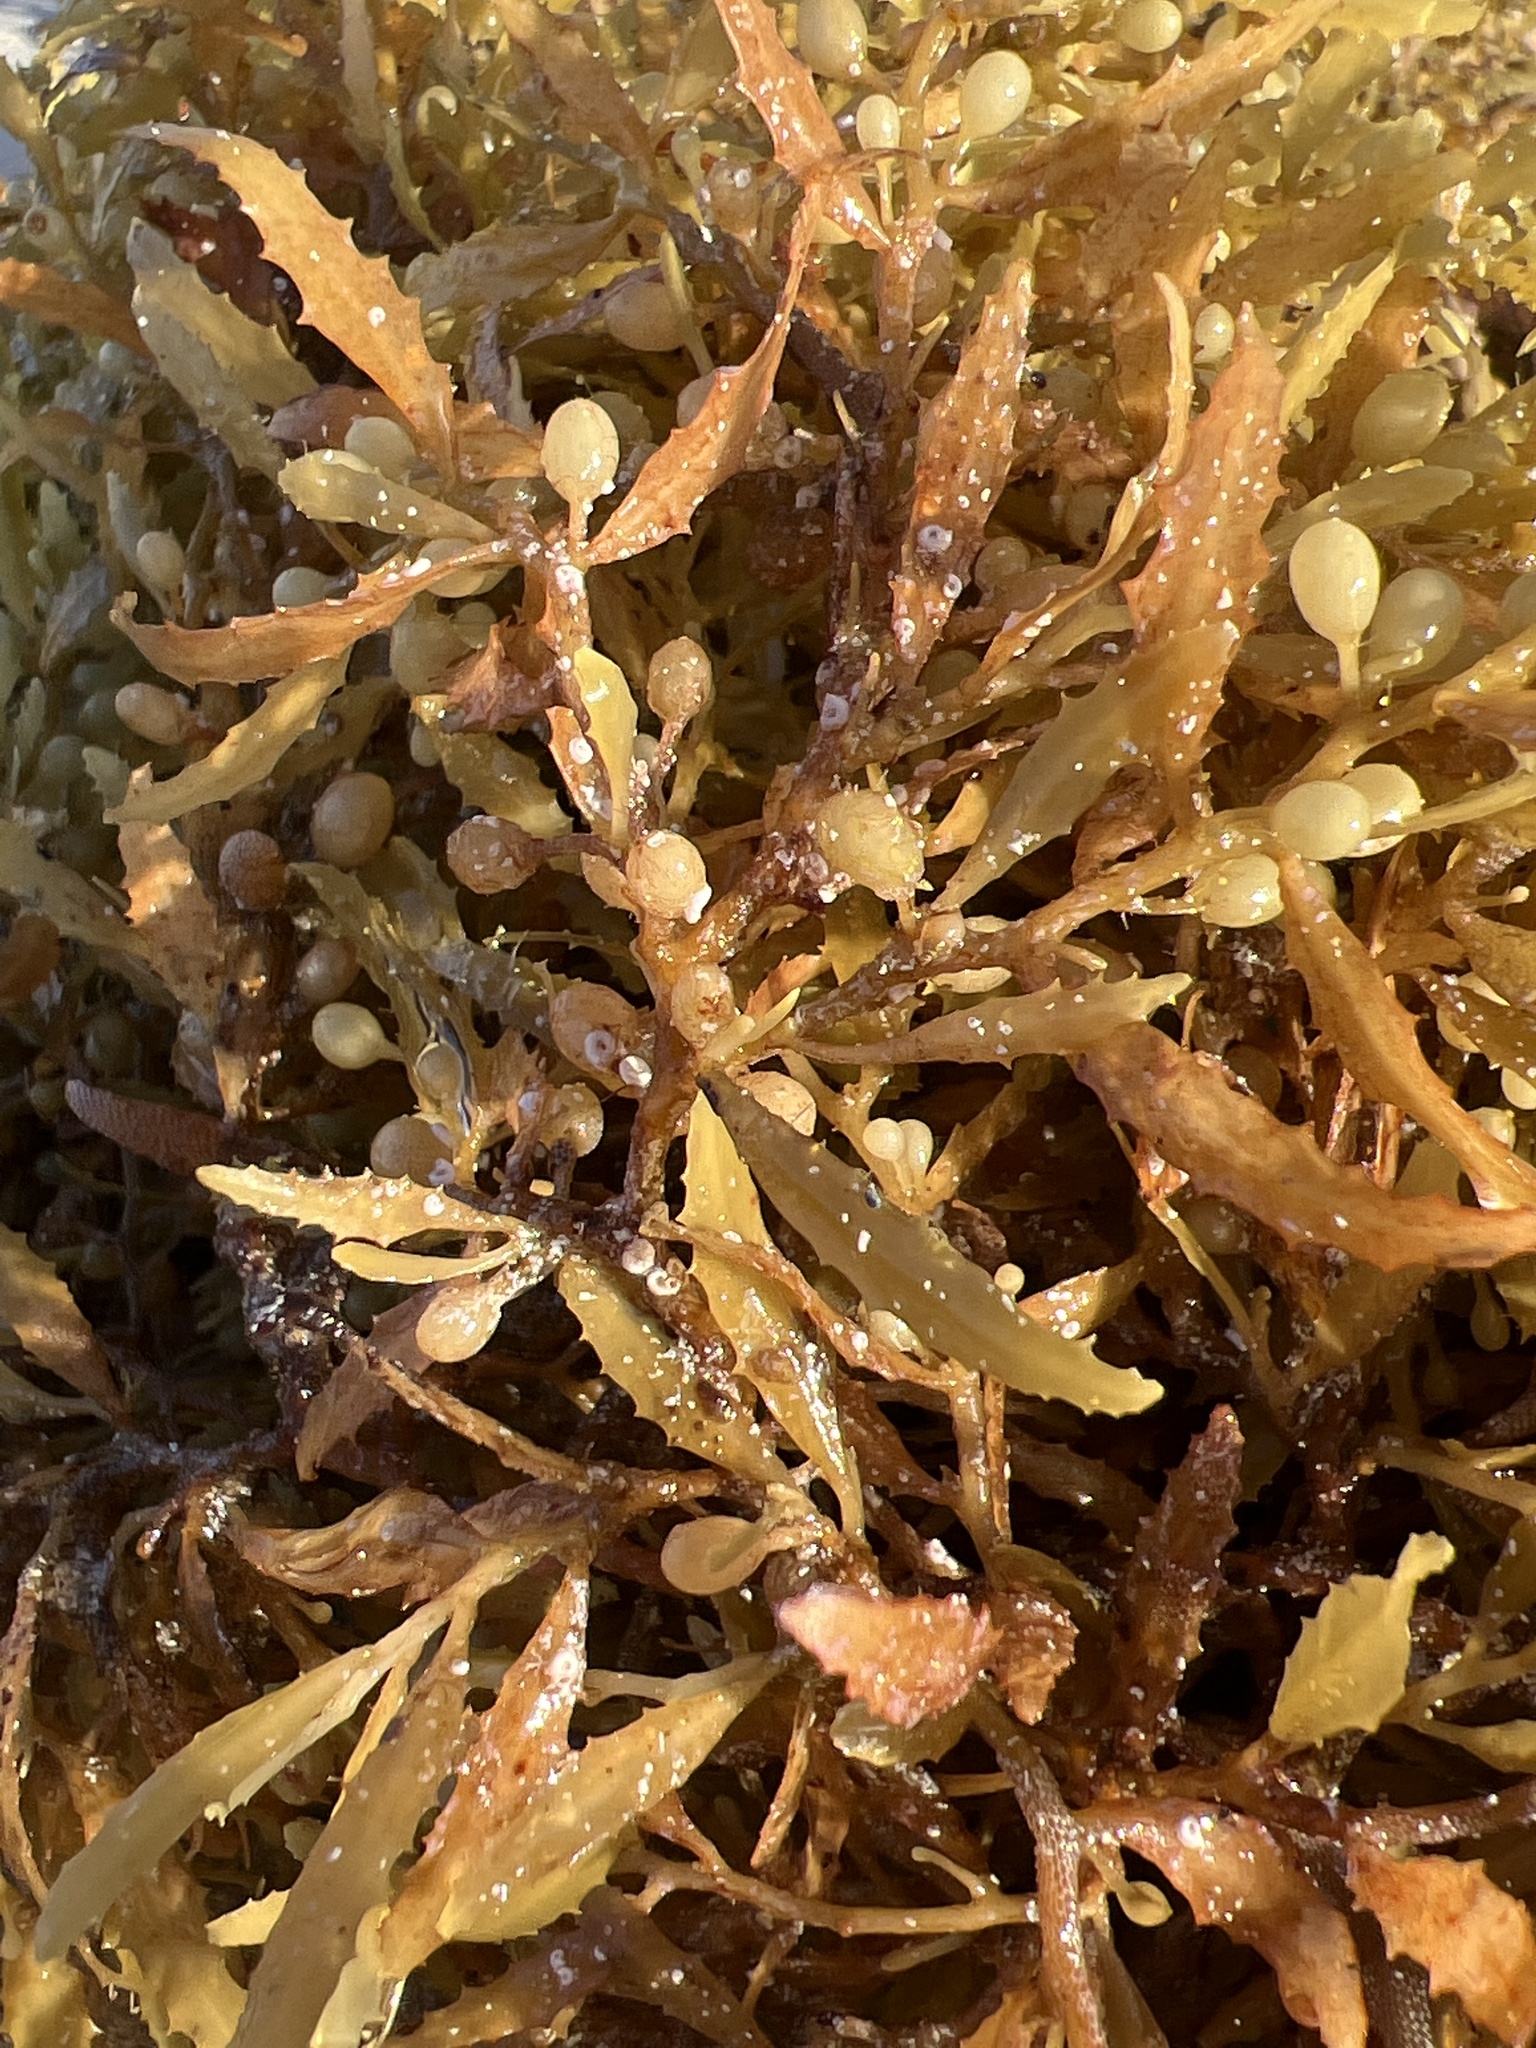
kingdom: Chromista
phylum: Ochrophyta
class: Phaeophyceae
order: Fucales
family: Sargassaceae
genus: Sargassum
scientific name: Sargassum fluitans
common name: Sargassum seaweed
